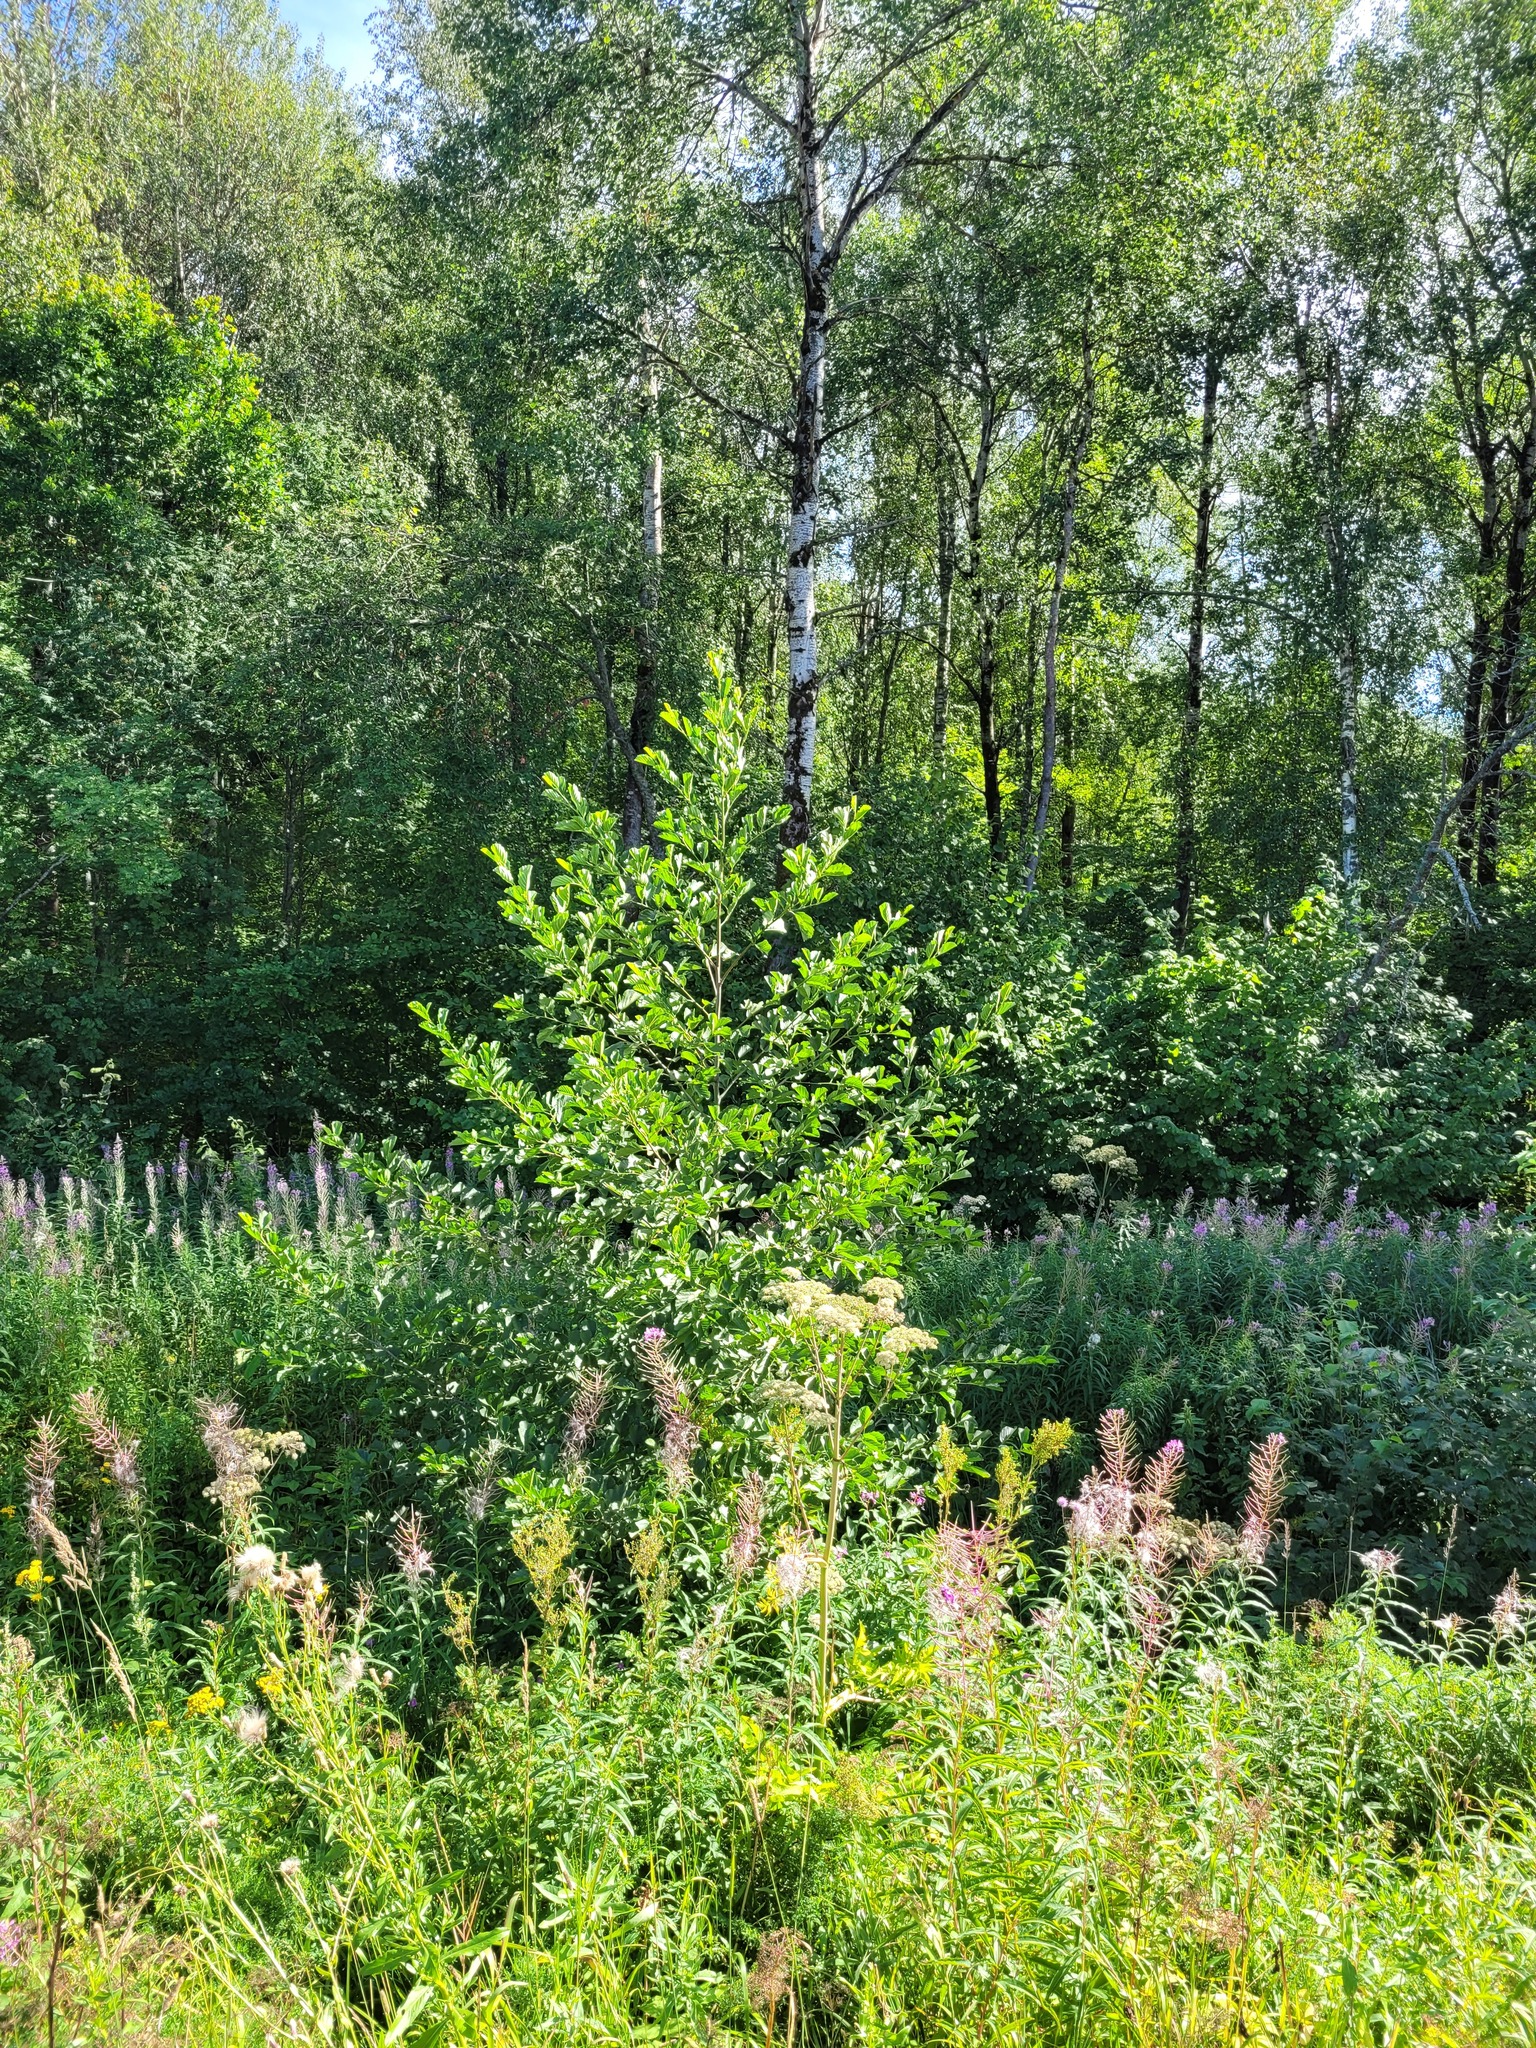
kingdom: Plantae
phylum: Tracheophyta
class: Magnoliopsida
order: Fagales
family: Betulaceae
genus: Alnus
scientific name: Alnus glutinosa
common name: Black alder
